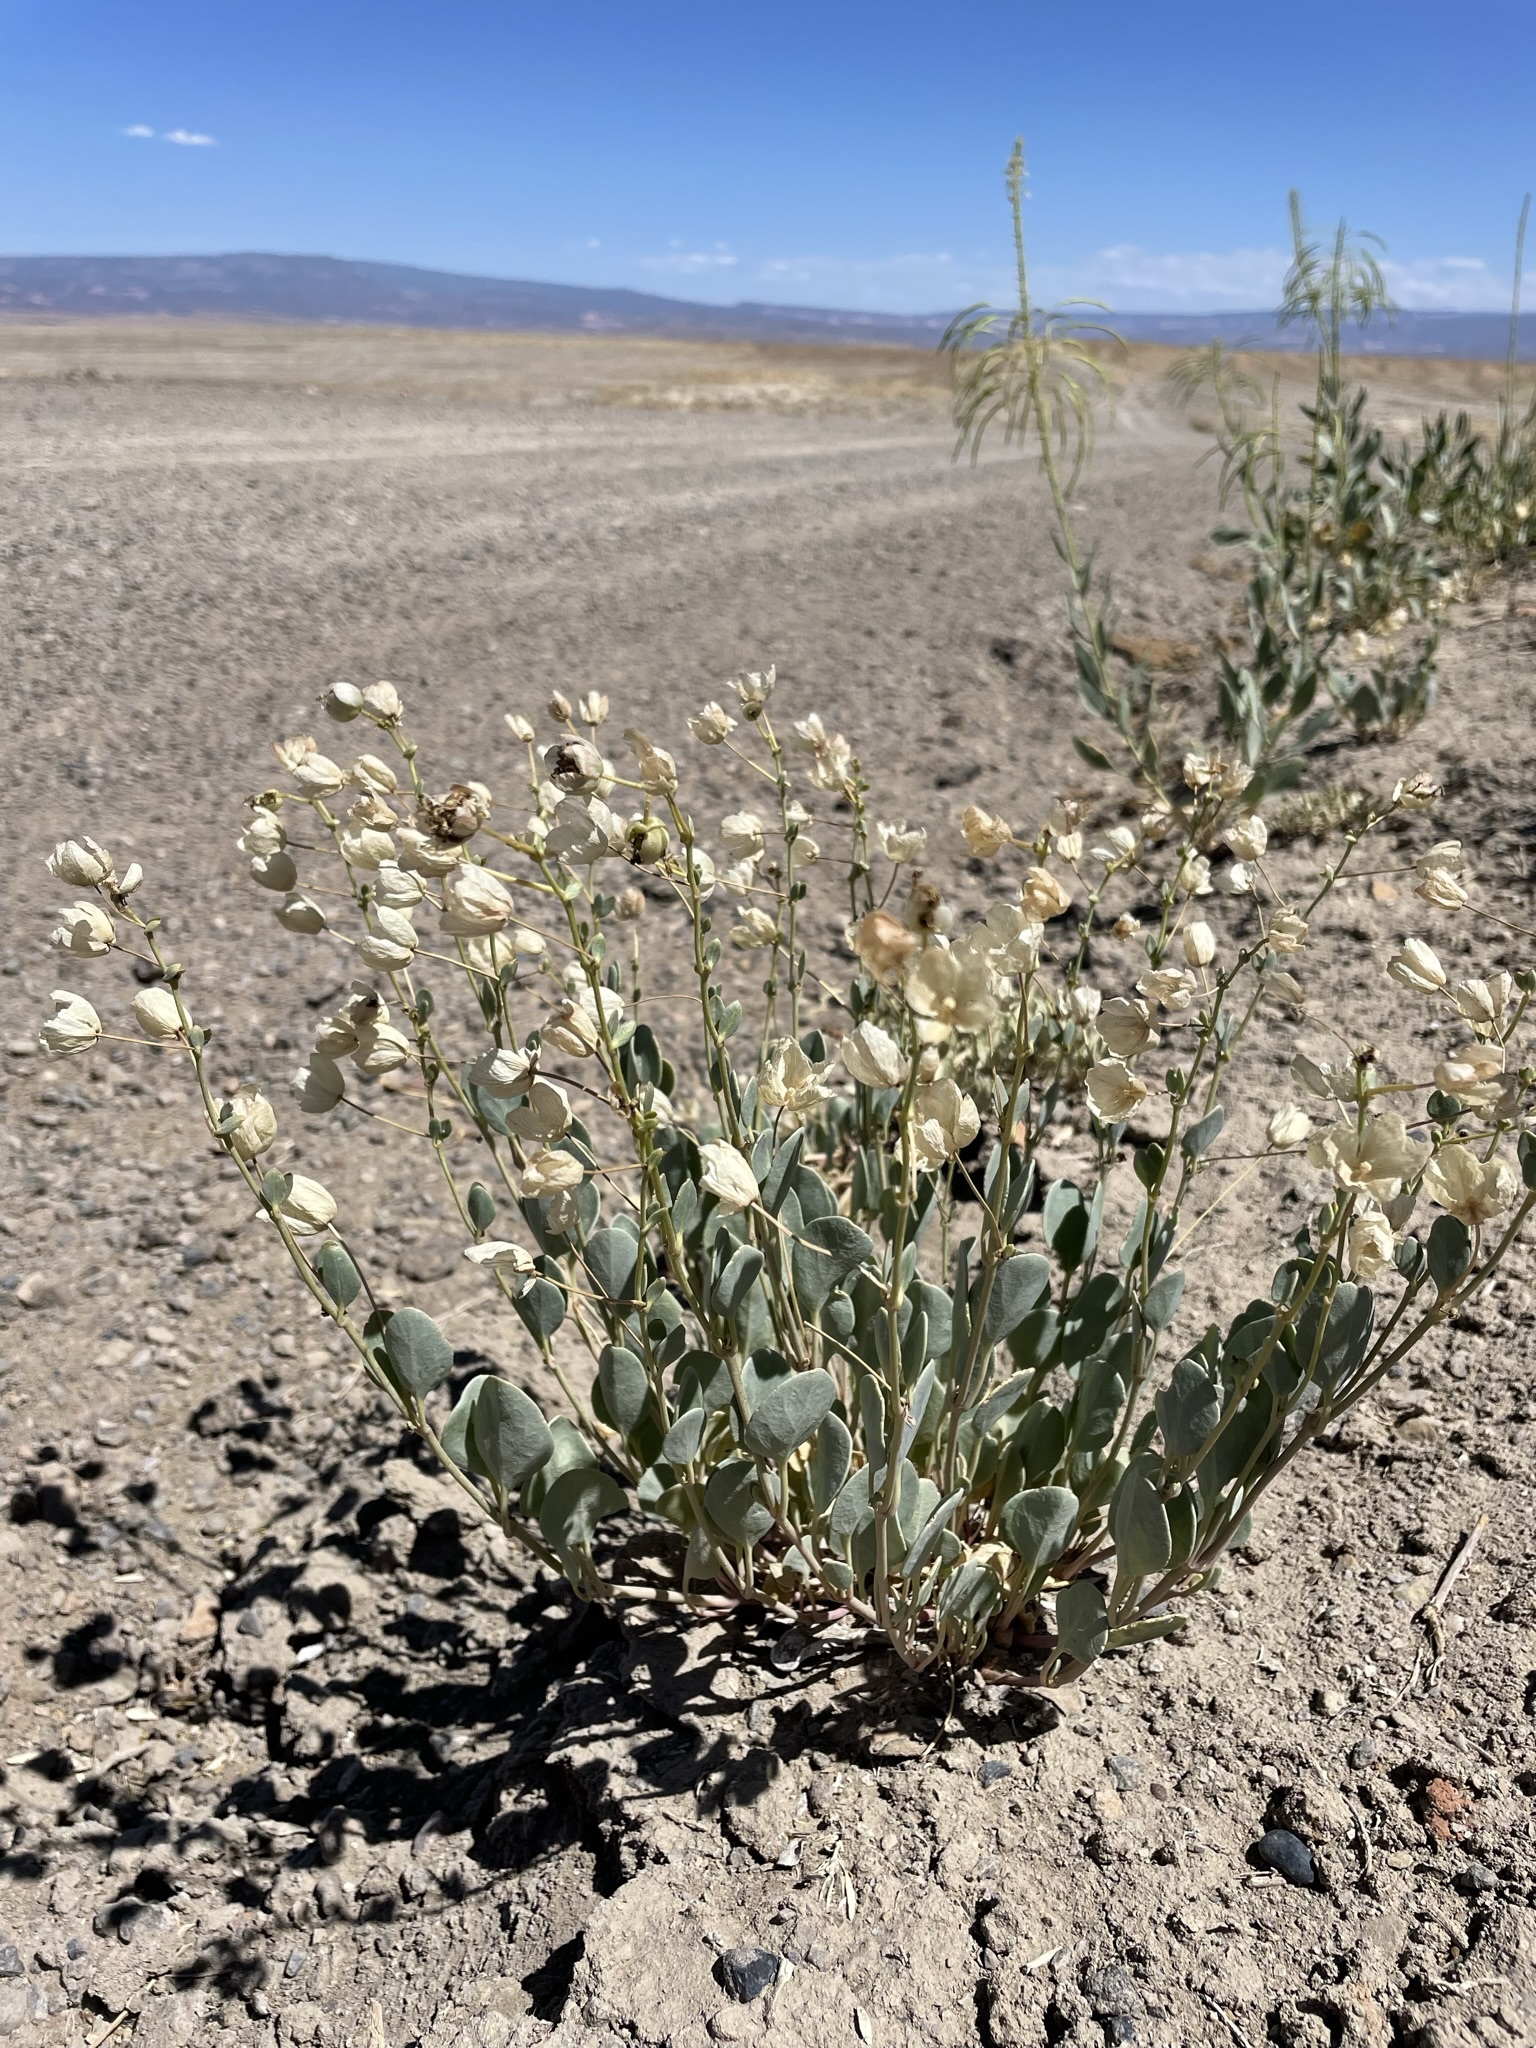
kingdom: Plantae
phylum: Tracheophyta
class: Magnoliopsida
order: Caryophyllales
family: Nyctaginaceae
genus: Abronia
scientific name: Abronia glabrifolia
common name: Clay sand verbena
